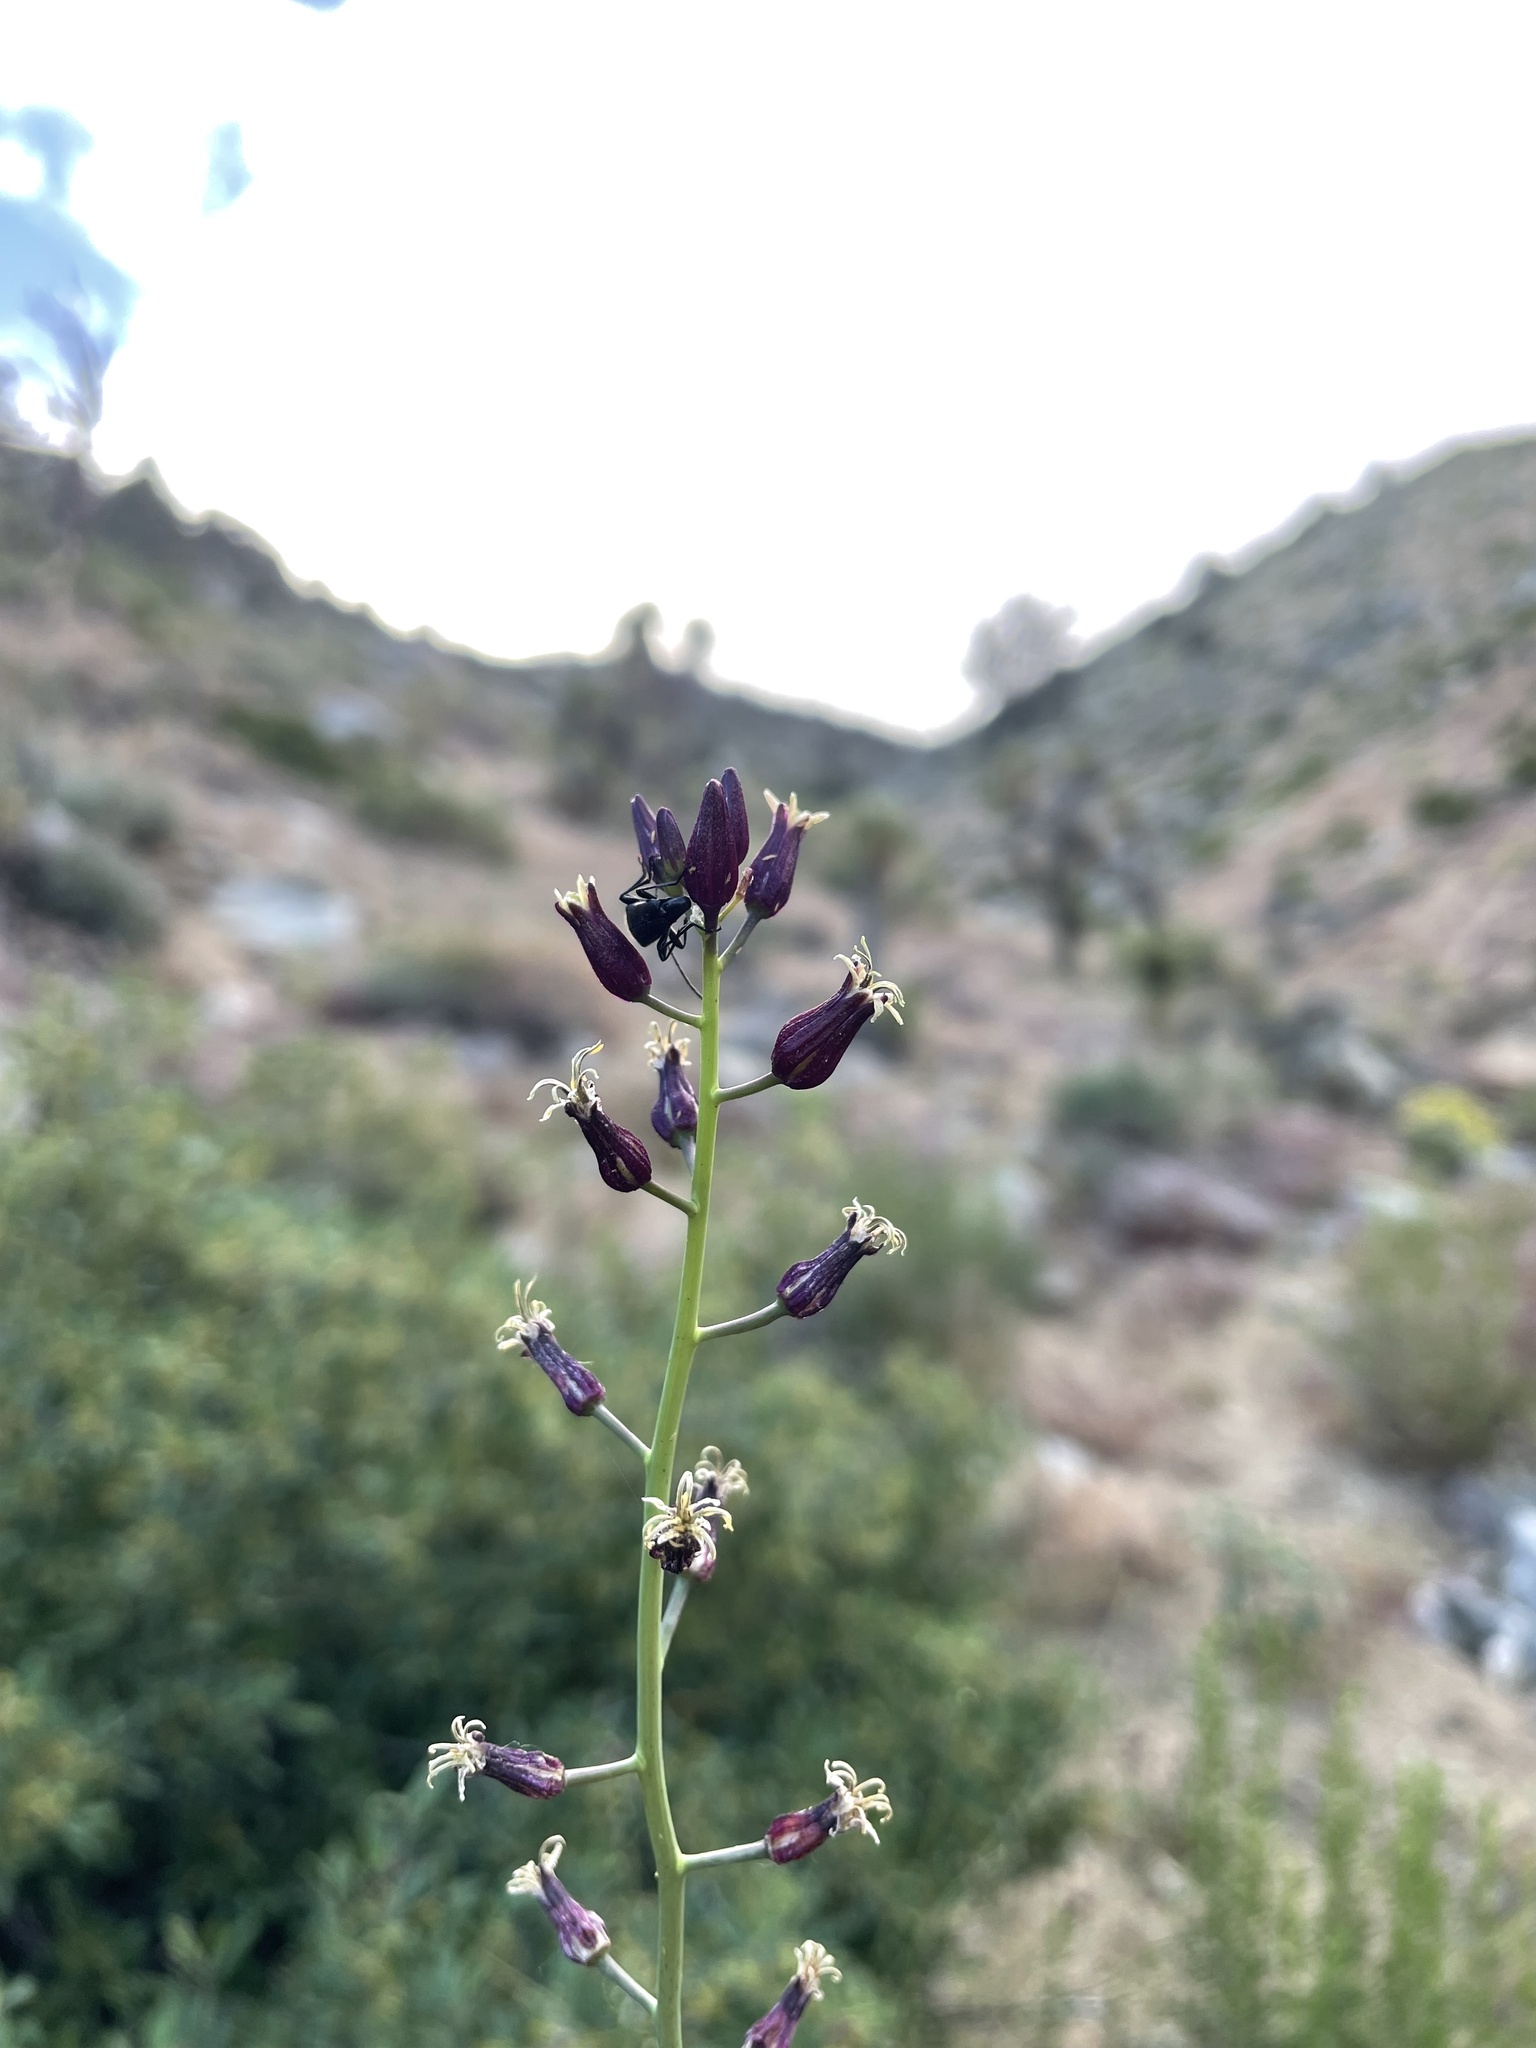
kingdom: Plantae
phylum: Tracheophyta
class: Magnoliopsida
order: Brassicales
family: Brassicaceae
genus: Streptanthus
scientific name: Streptanthus pilosus
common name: Chocolate drops
